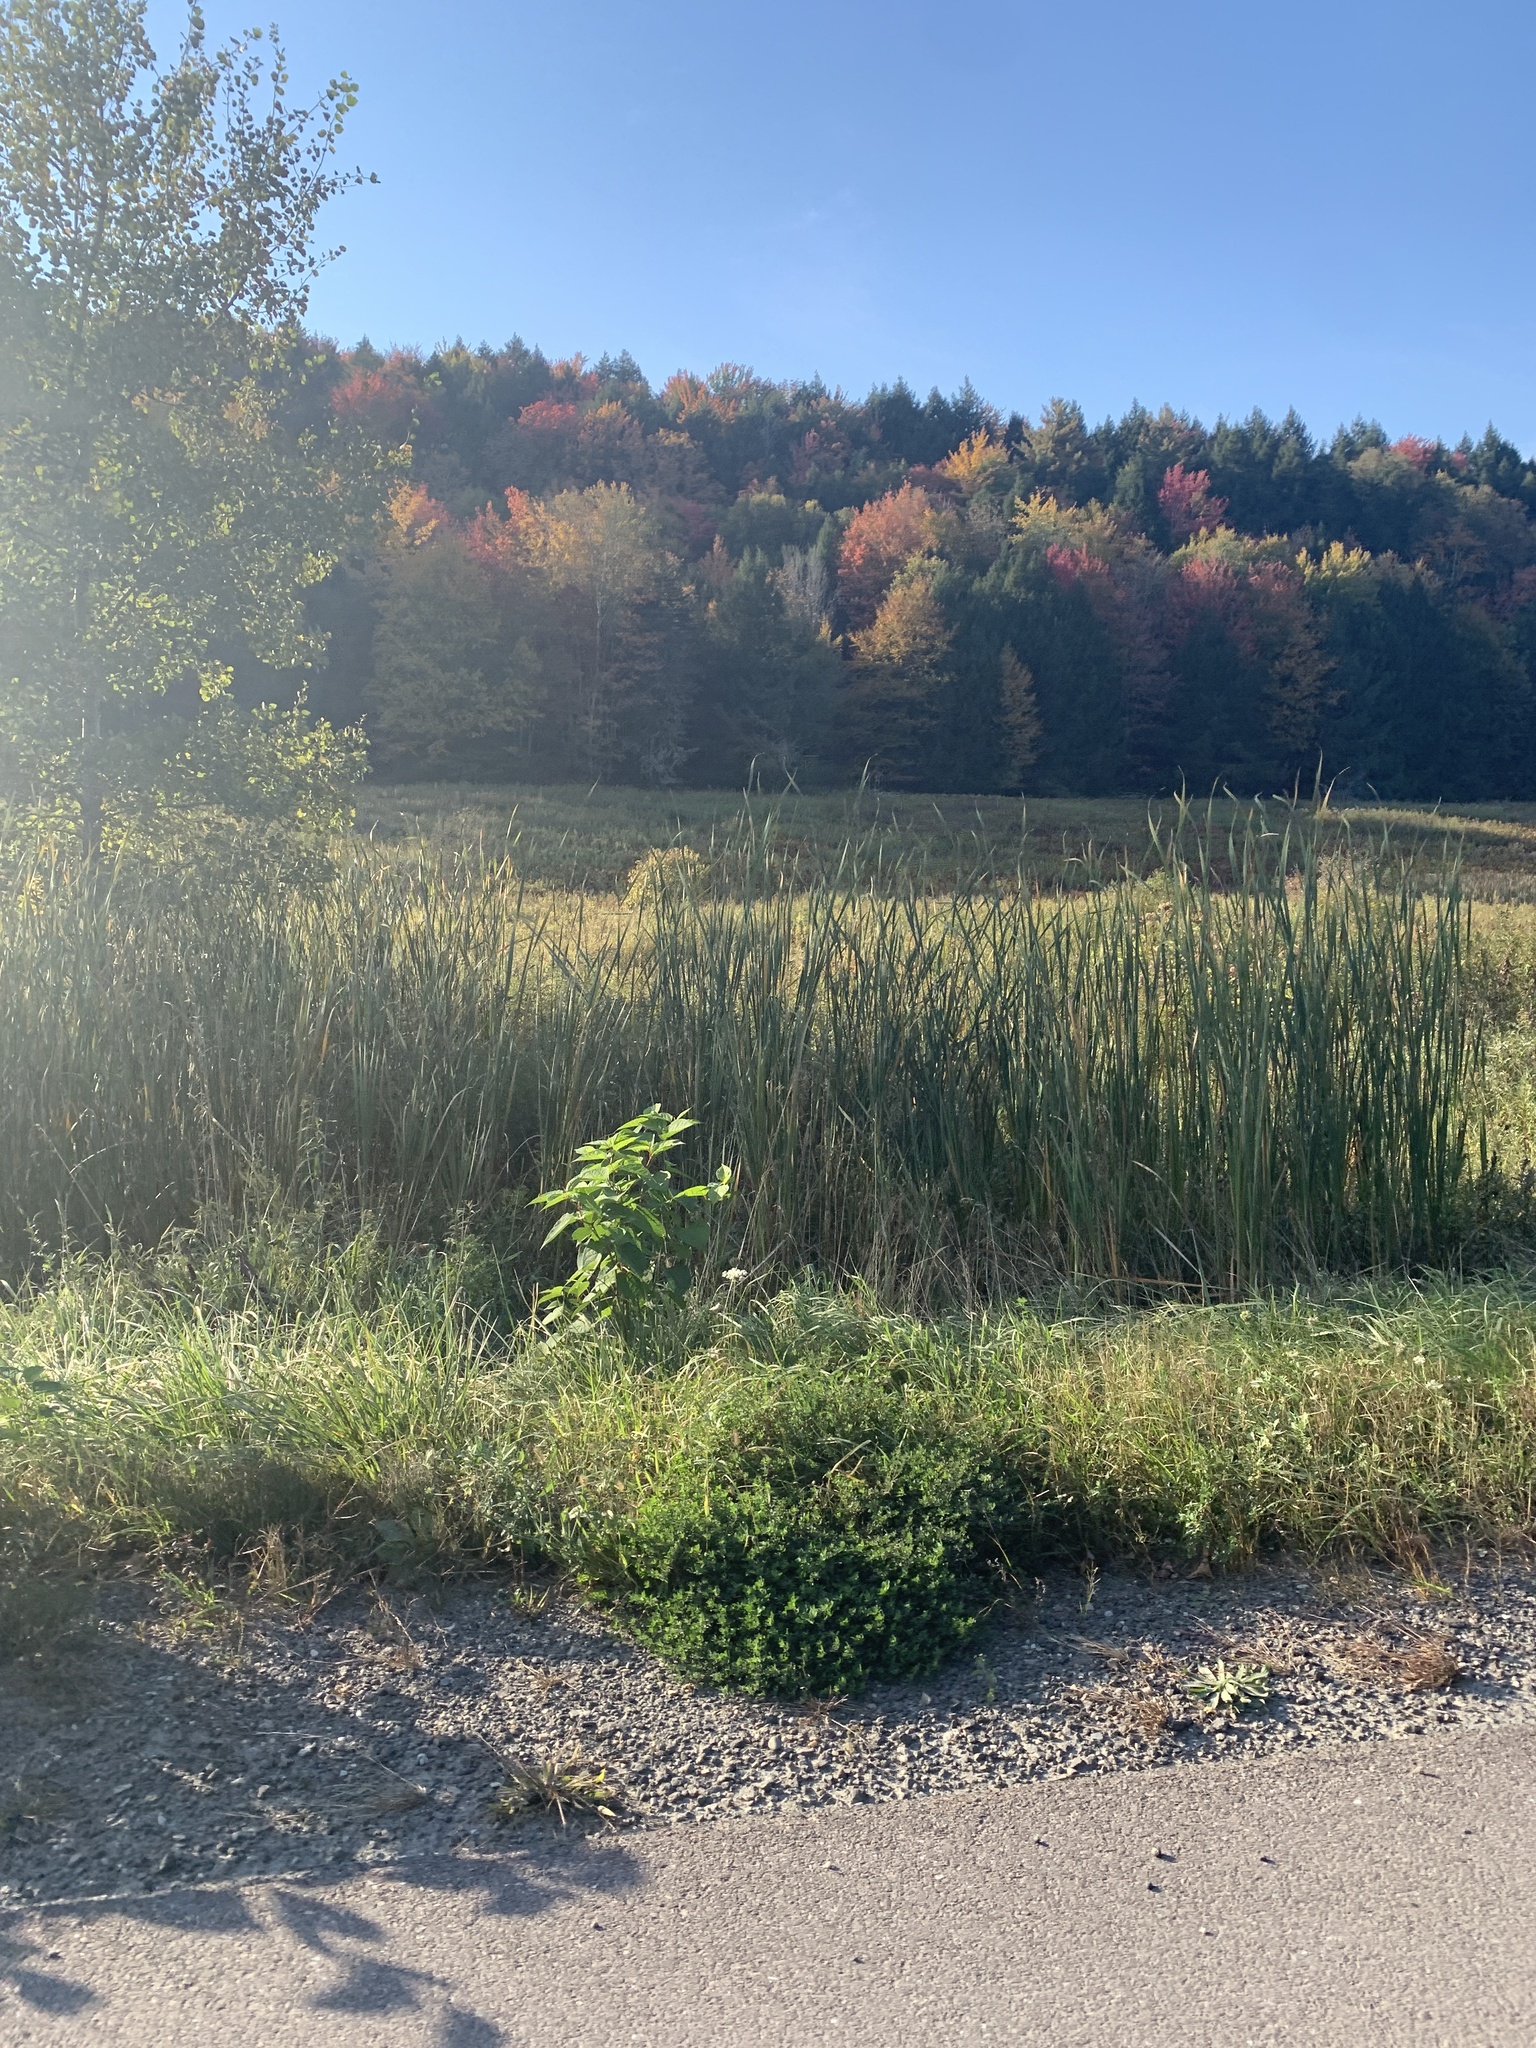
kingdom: Plantae
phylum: Tracheophyta
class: Liliopsida
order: Poales
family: Typhaceae
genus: Typha
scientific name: Typha
